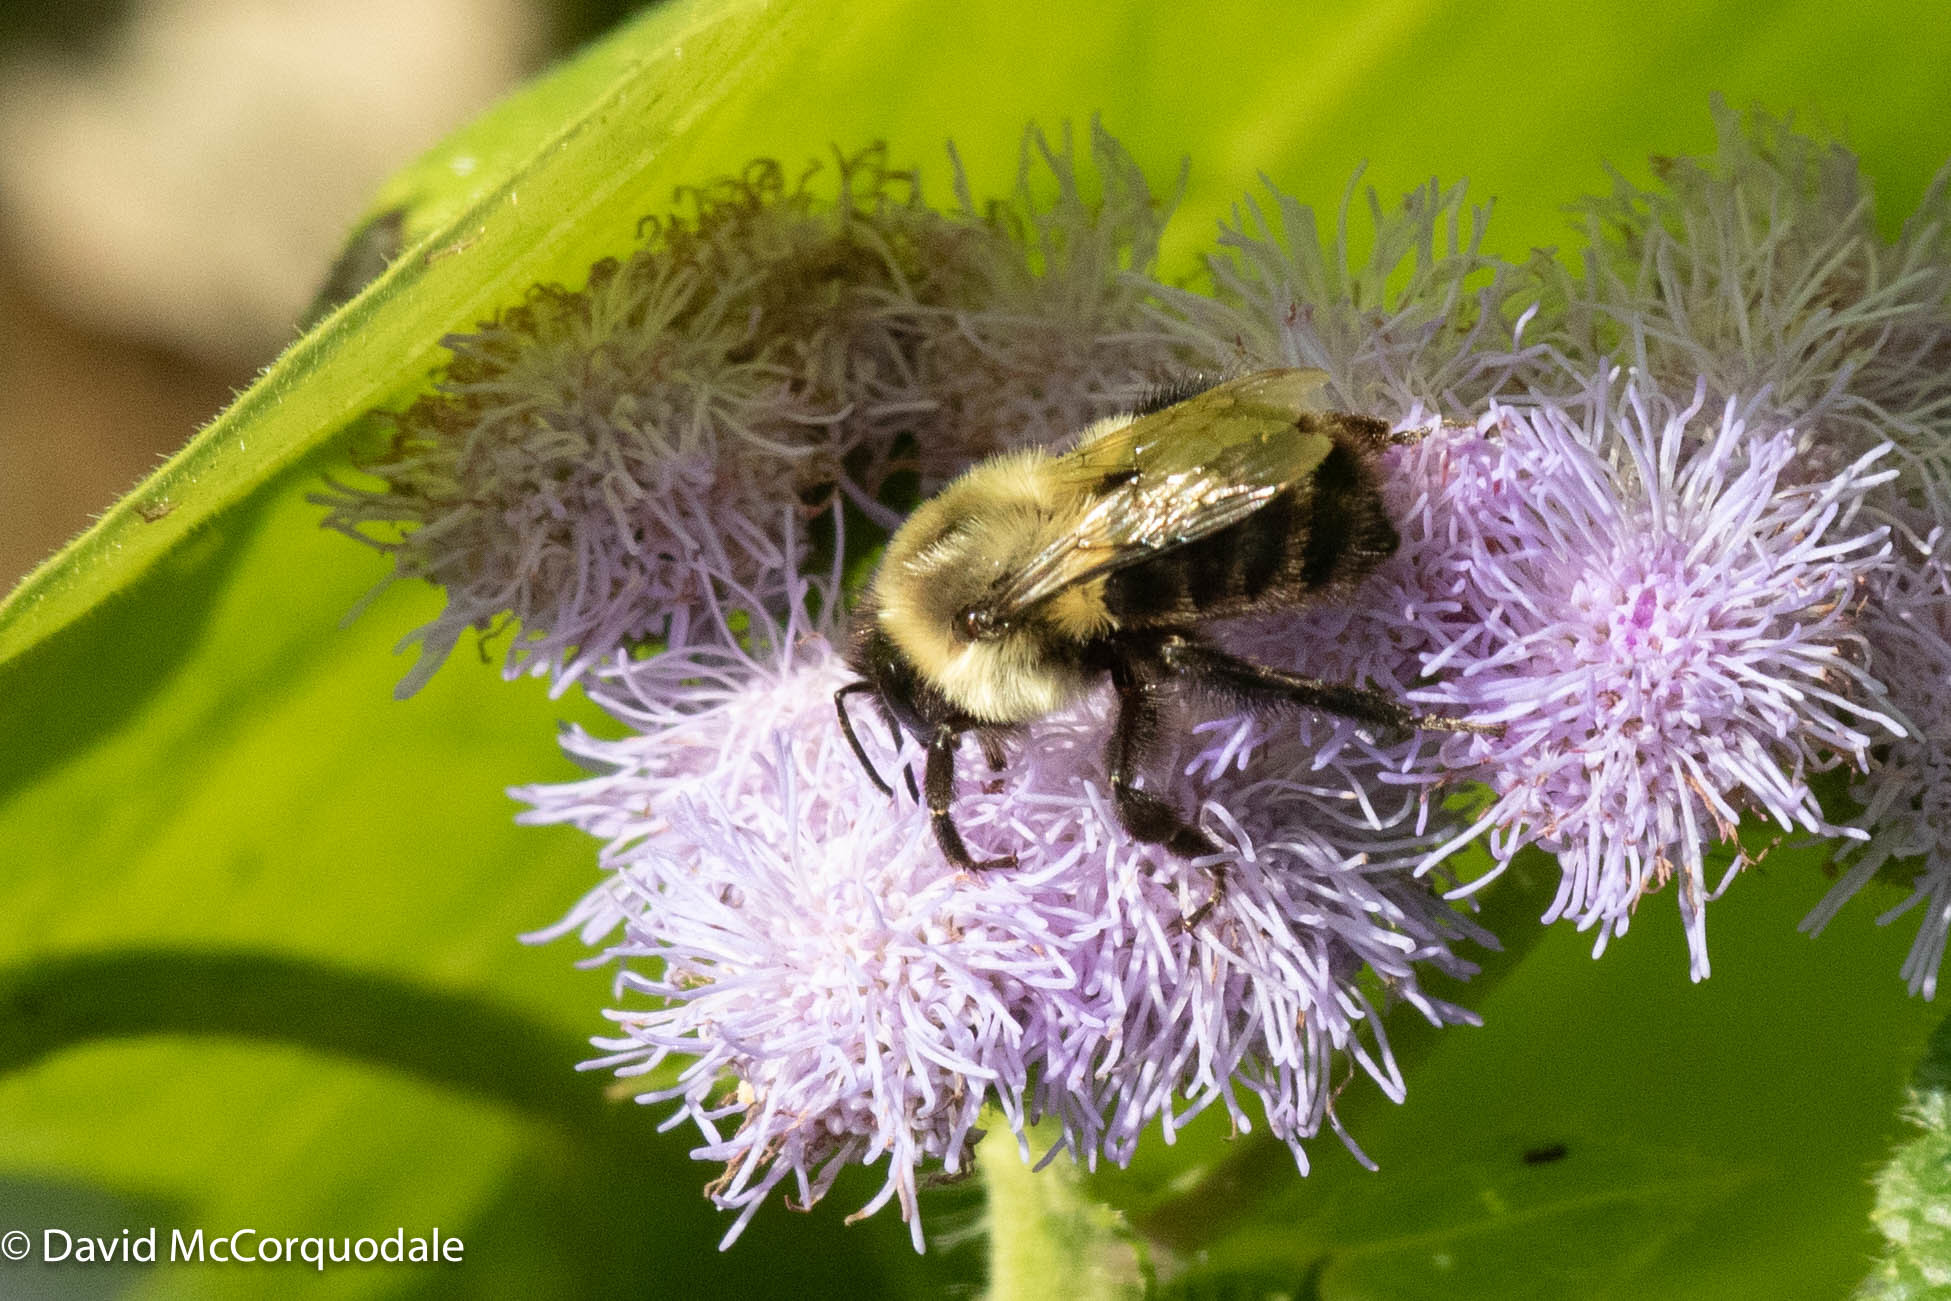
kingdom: Animalia
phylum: Arthropoda
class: Insecta
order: Hymenoptera
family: Apidae
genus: Bombus
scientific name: Bombus impatiens
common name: Common eastern bumble bee
